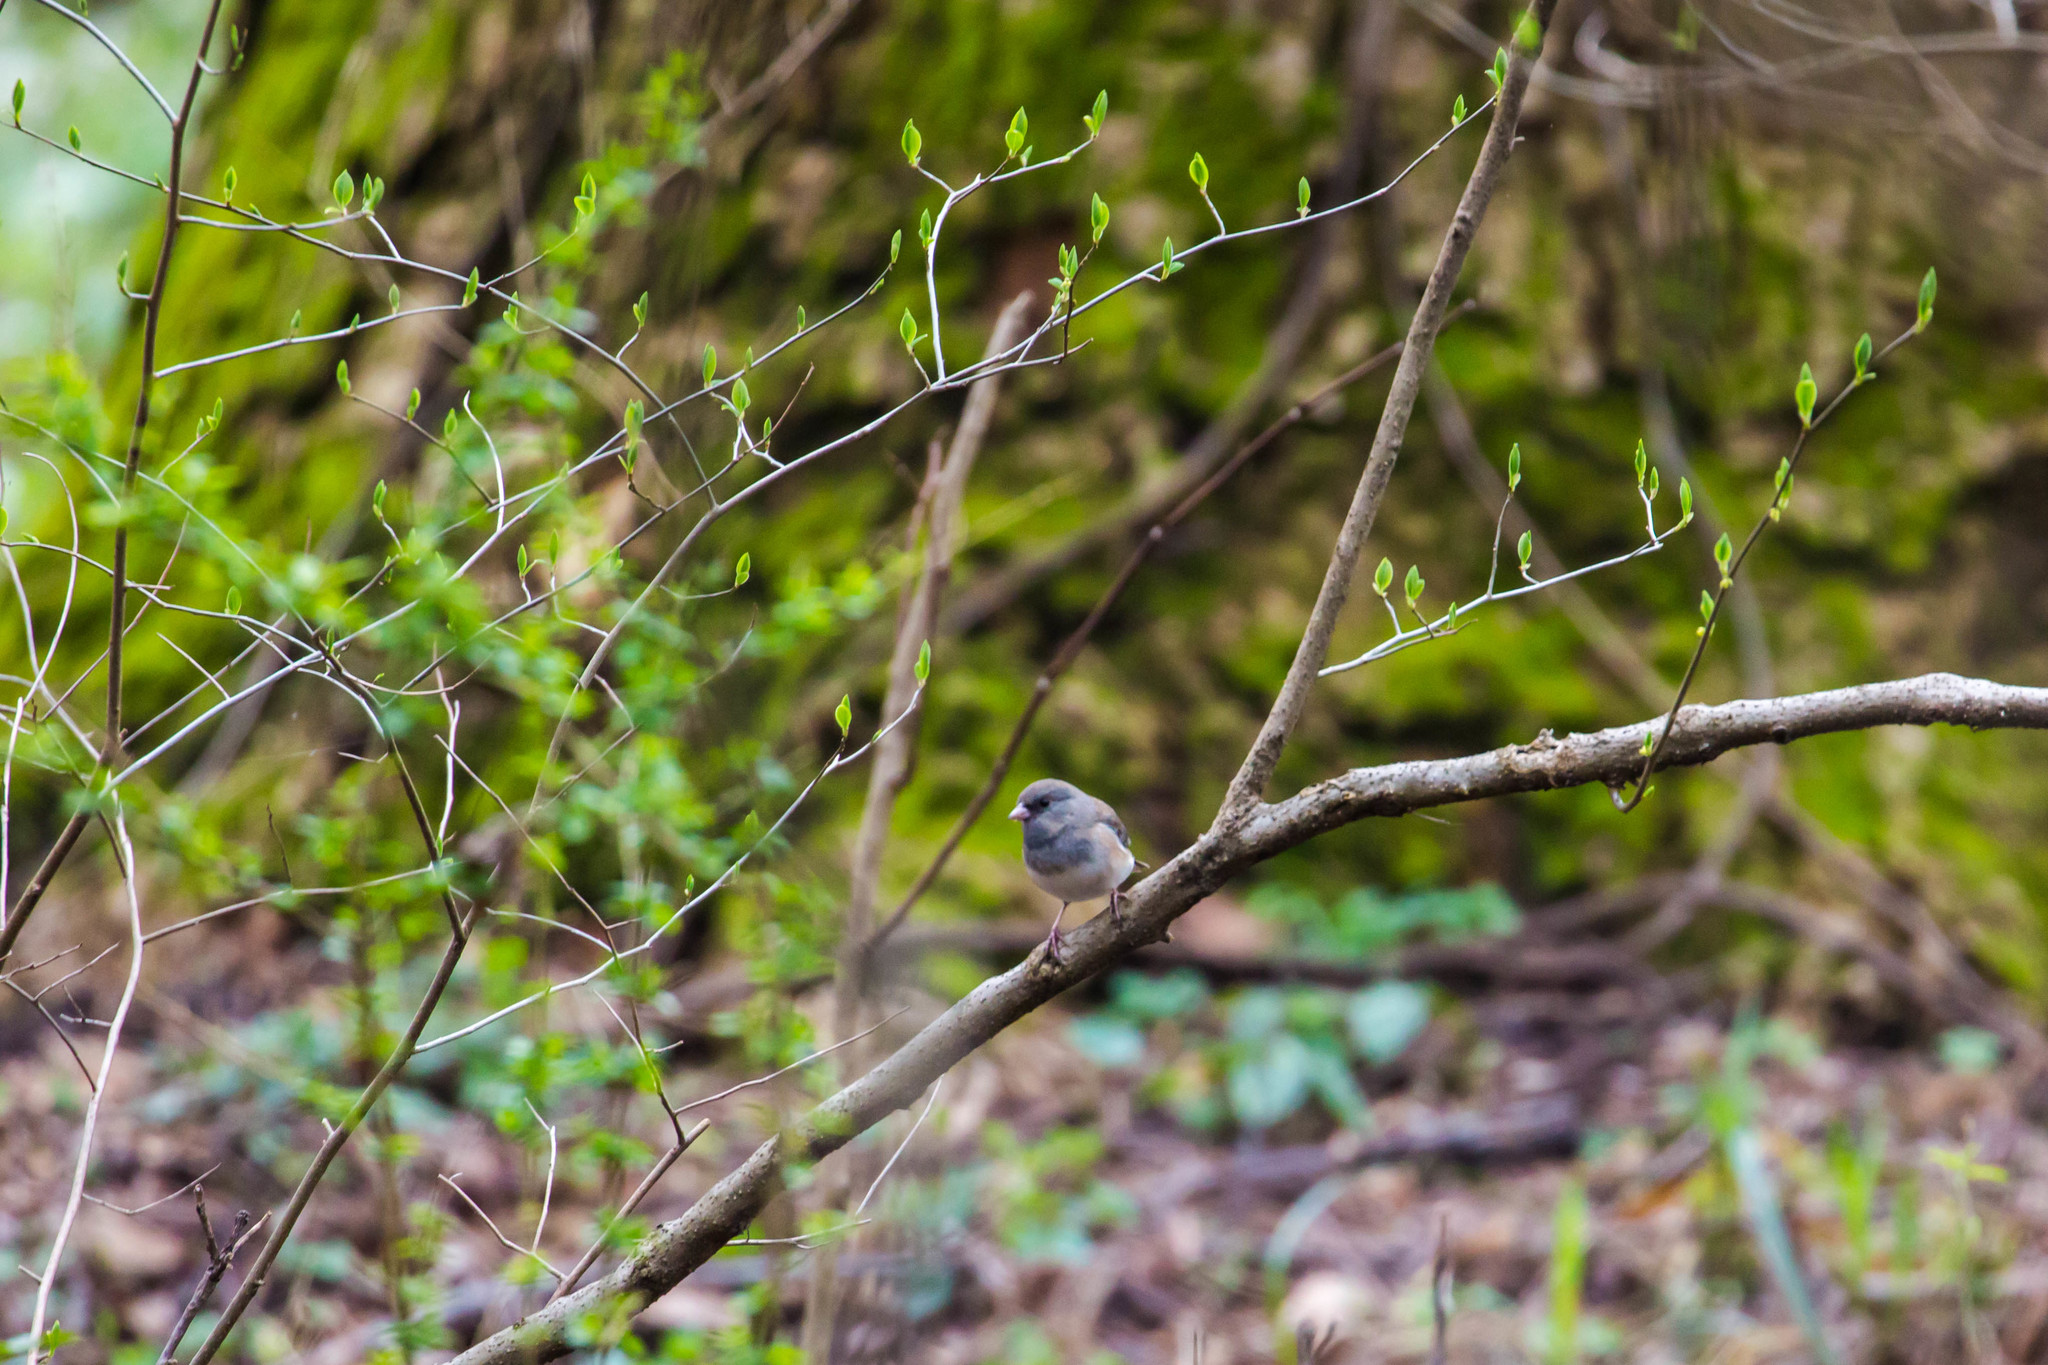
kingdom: Animalia
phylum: Chordata
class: Aves
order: Passeriformes
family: Passerellidae
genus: Junco
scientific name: Junco hyemalis
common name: Dark-eyed junco
